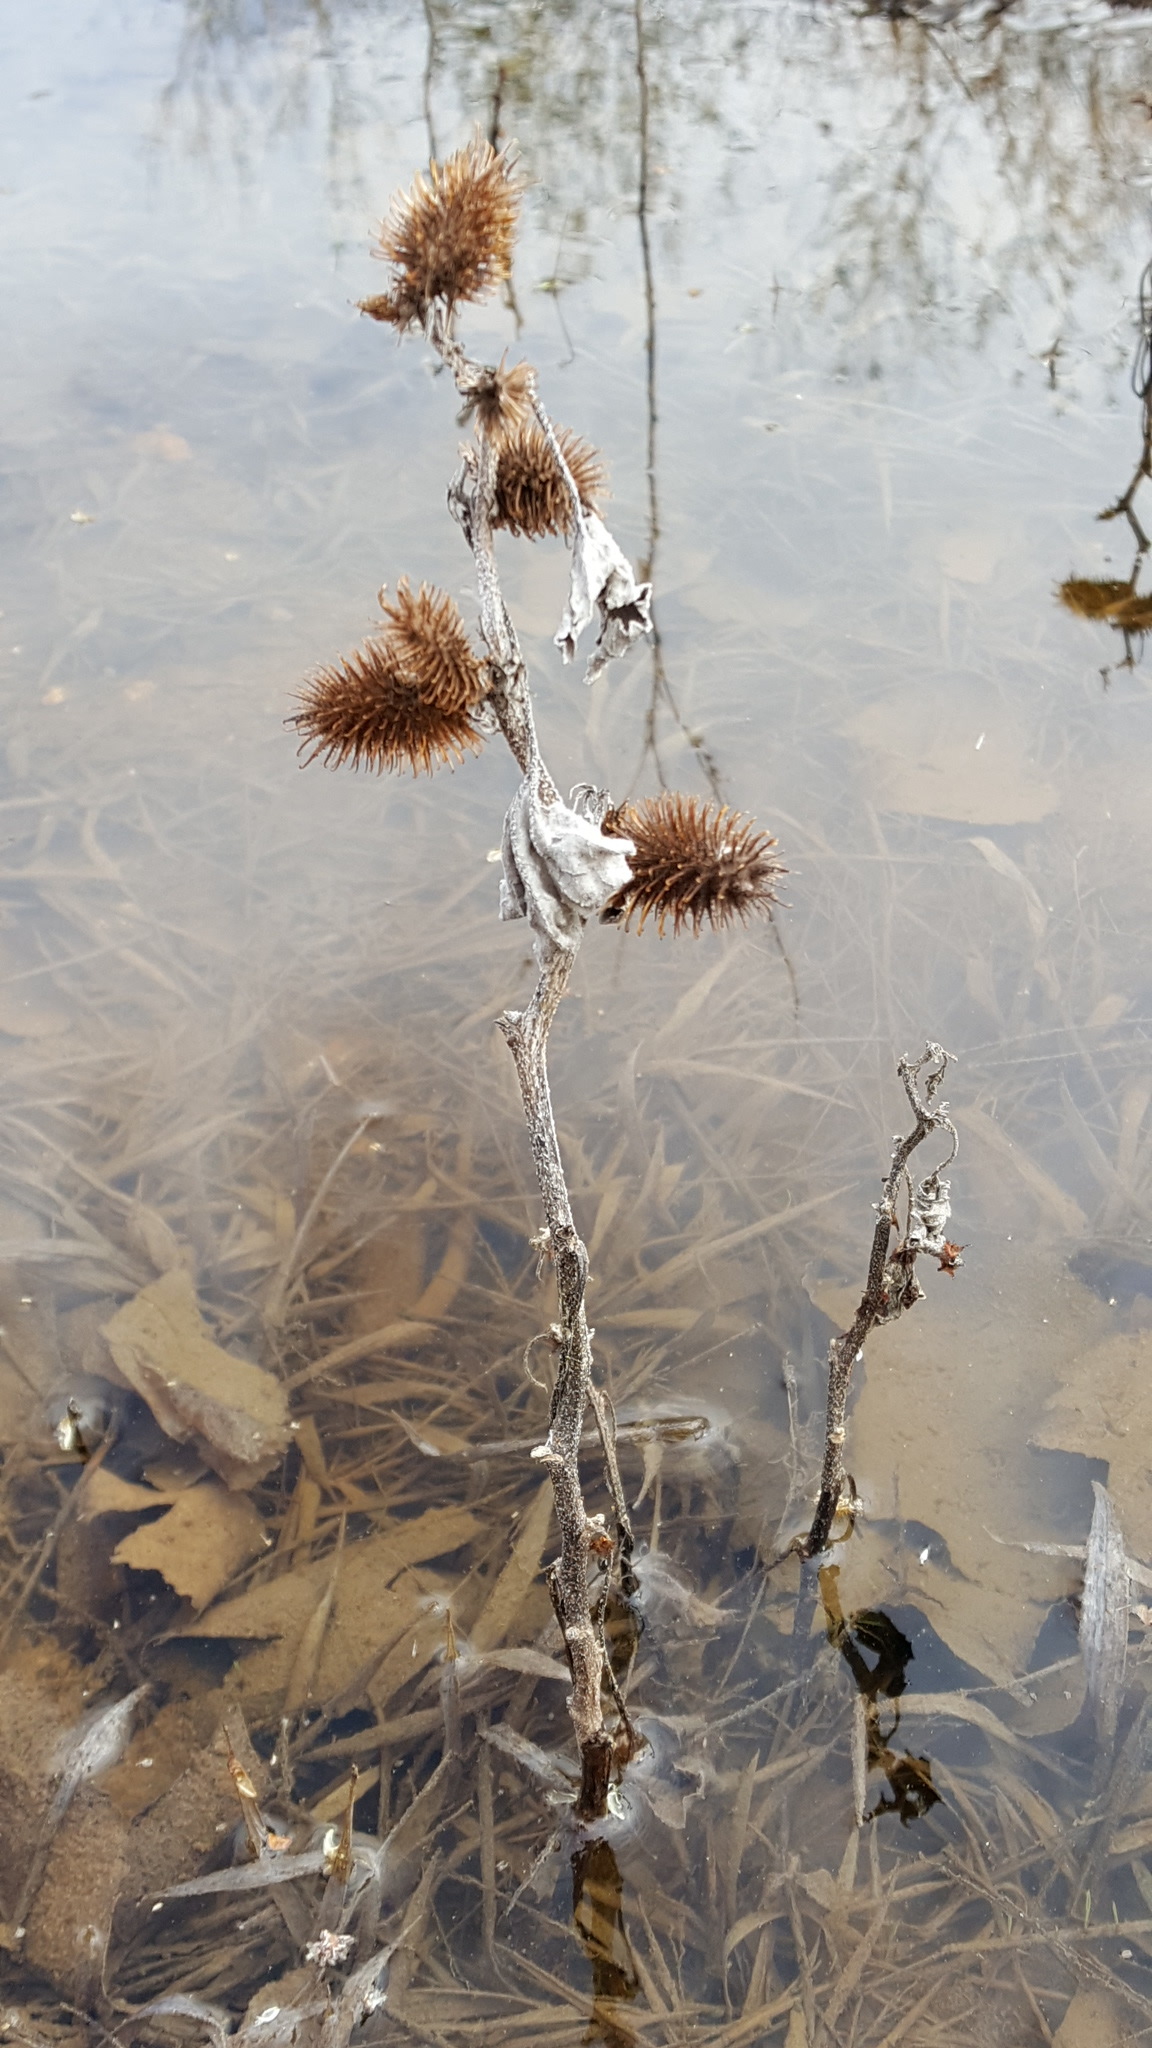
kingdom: Plantae
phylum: Tracheophyta
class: Magnoliopsida
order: Asterales
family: Asteraceae
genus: Xanthium
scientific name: Xanthium strumarium
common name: Rough cocklebur
